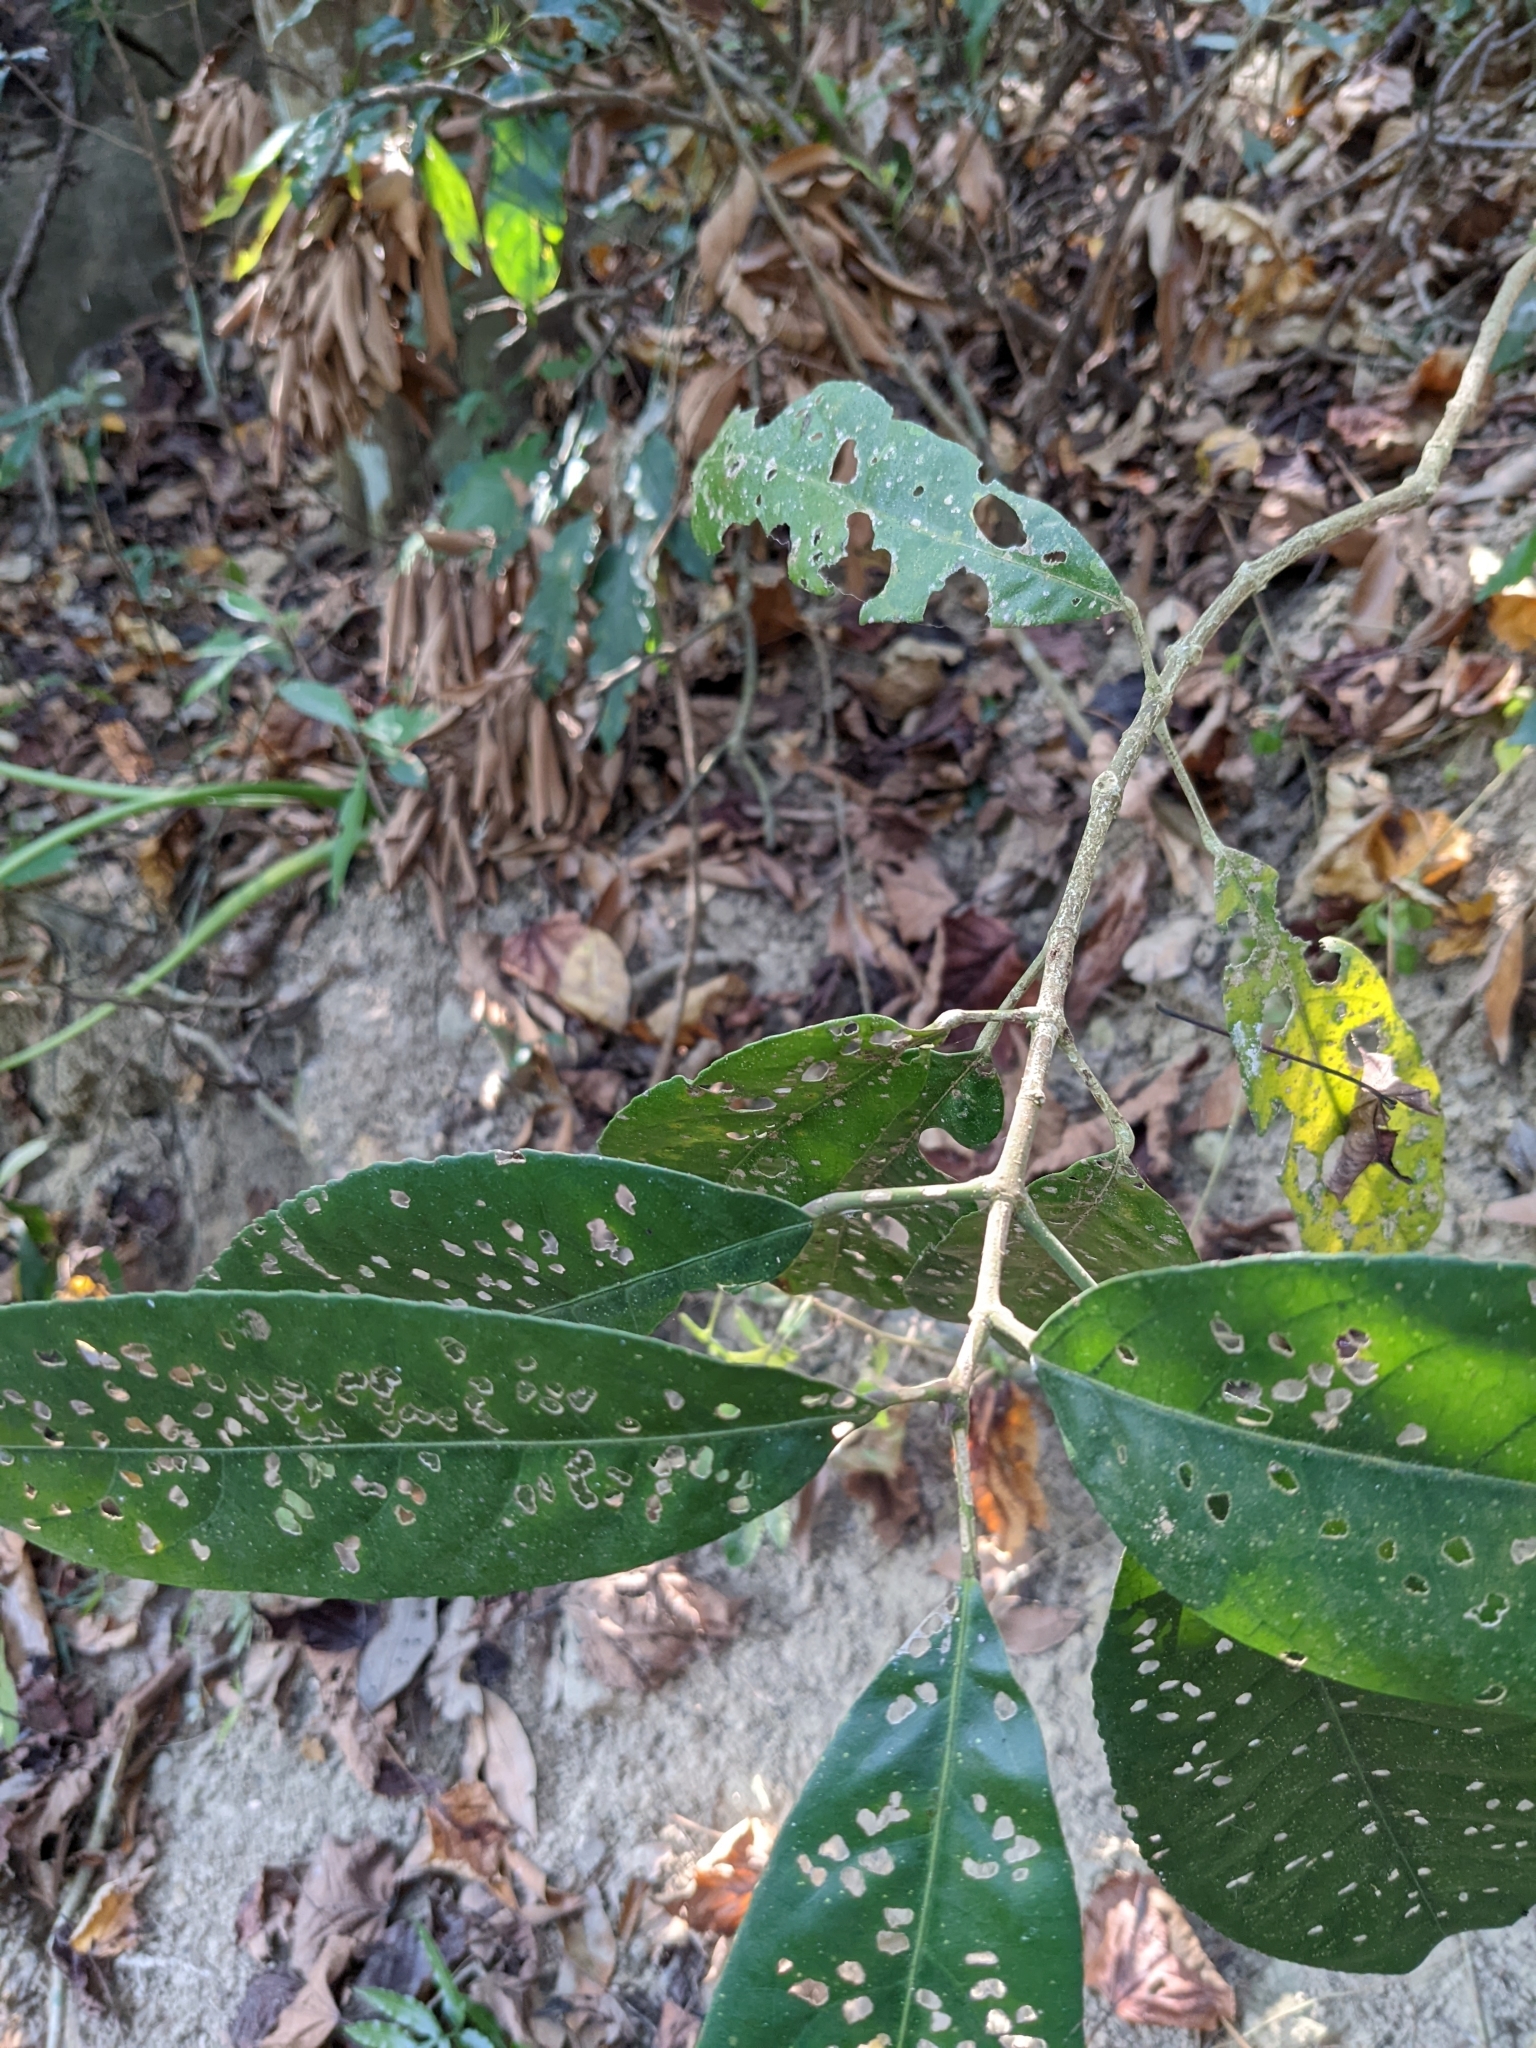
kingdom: Plantae
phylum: Tracheophyta
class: Magnoliopsida
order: Crossosomatales
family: Staphyleaceae
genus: Turpinia
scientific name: Turpinia formosana
